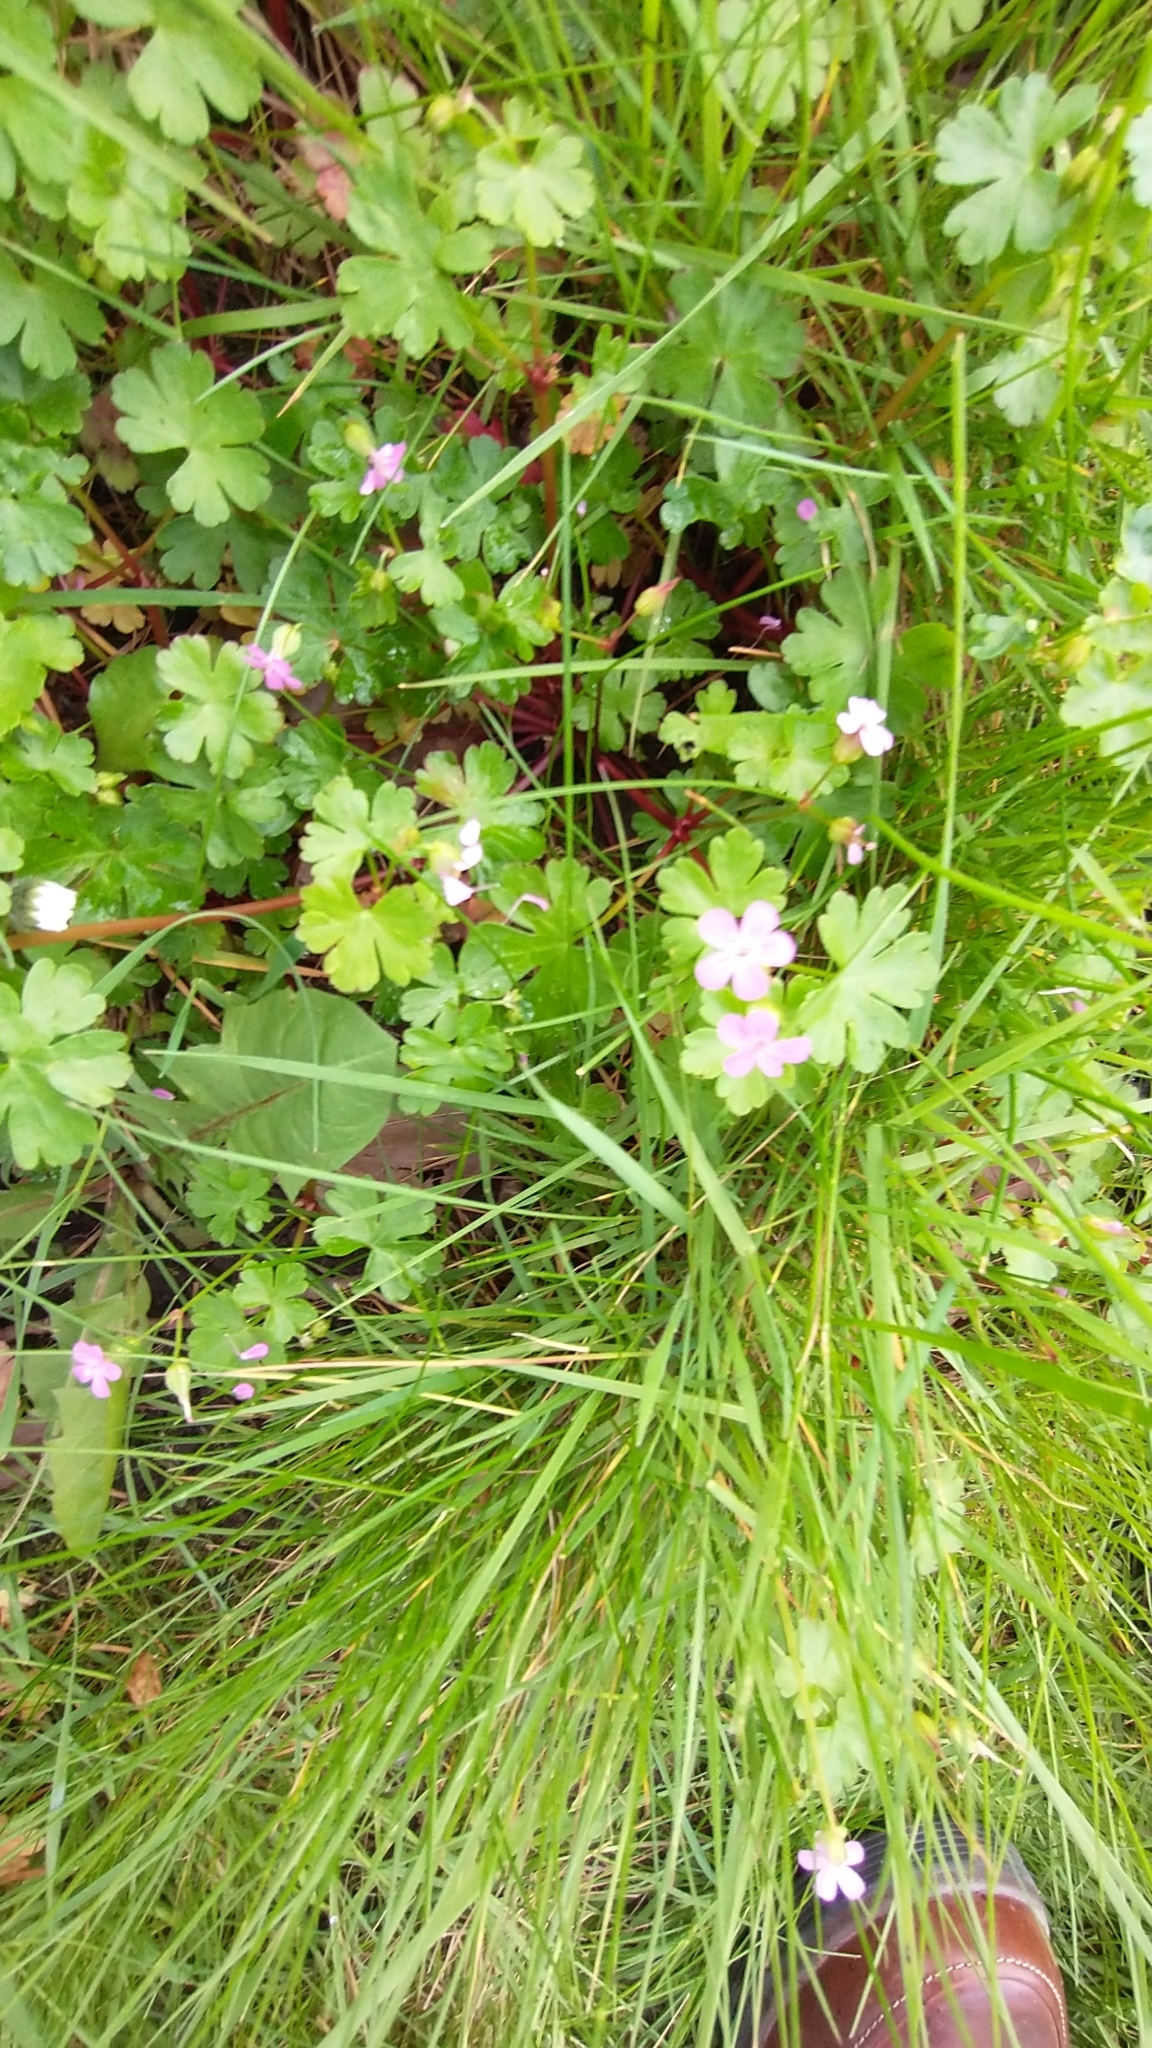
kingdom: Plantae
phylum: Tracheophyta
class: Magnoliopsida
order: Geraniales
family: Geraniaceae
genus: Geranium
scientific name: Geranium lucidum
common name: Shining crane's-bill
